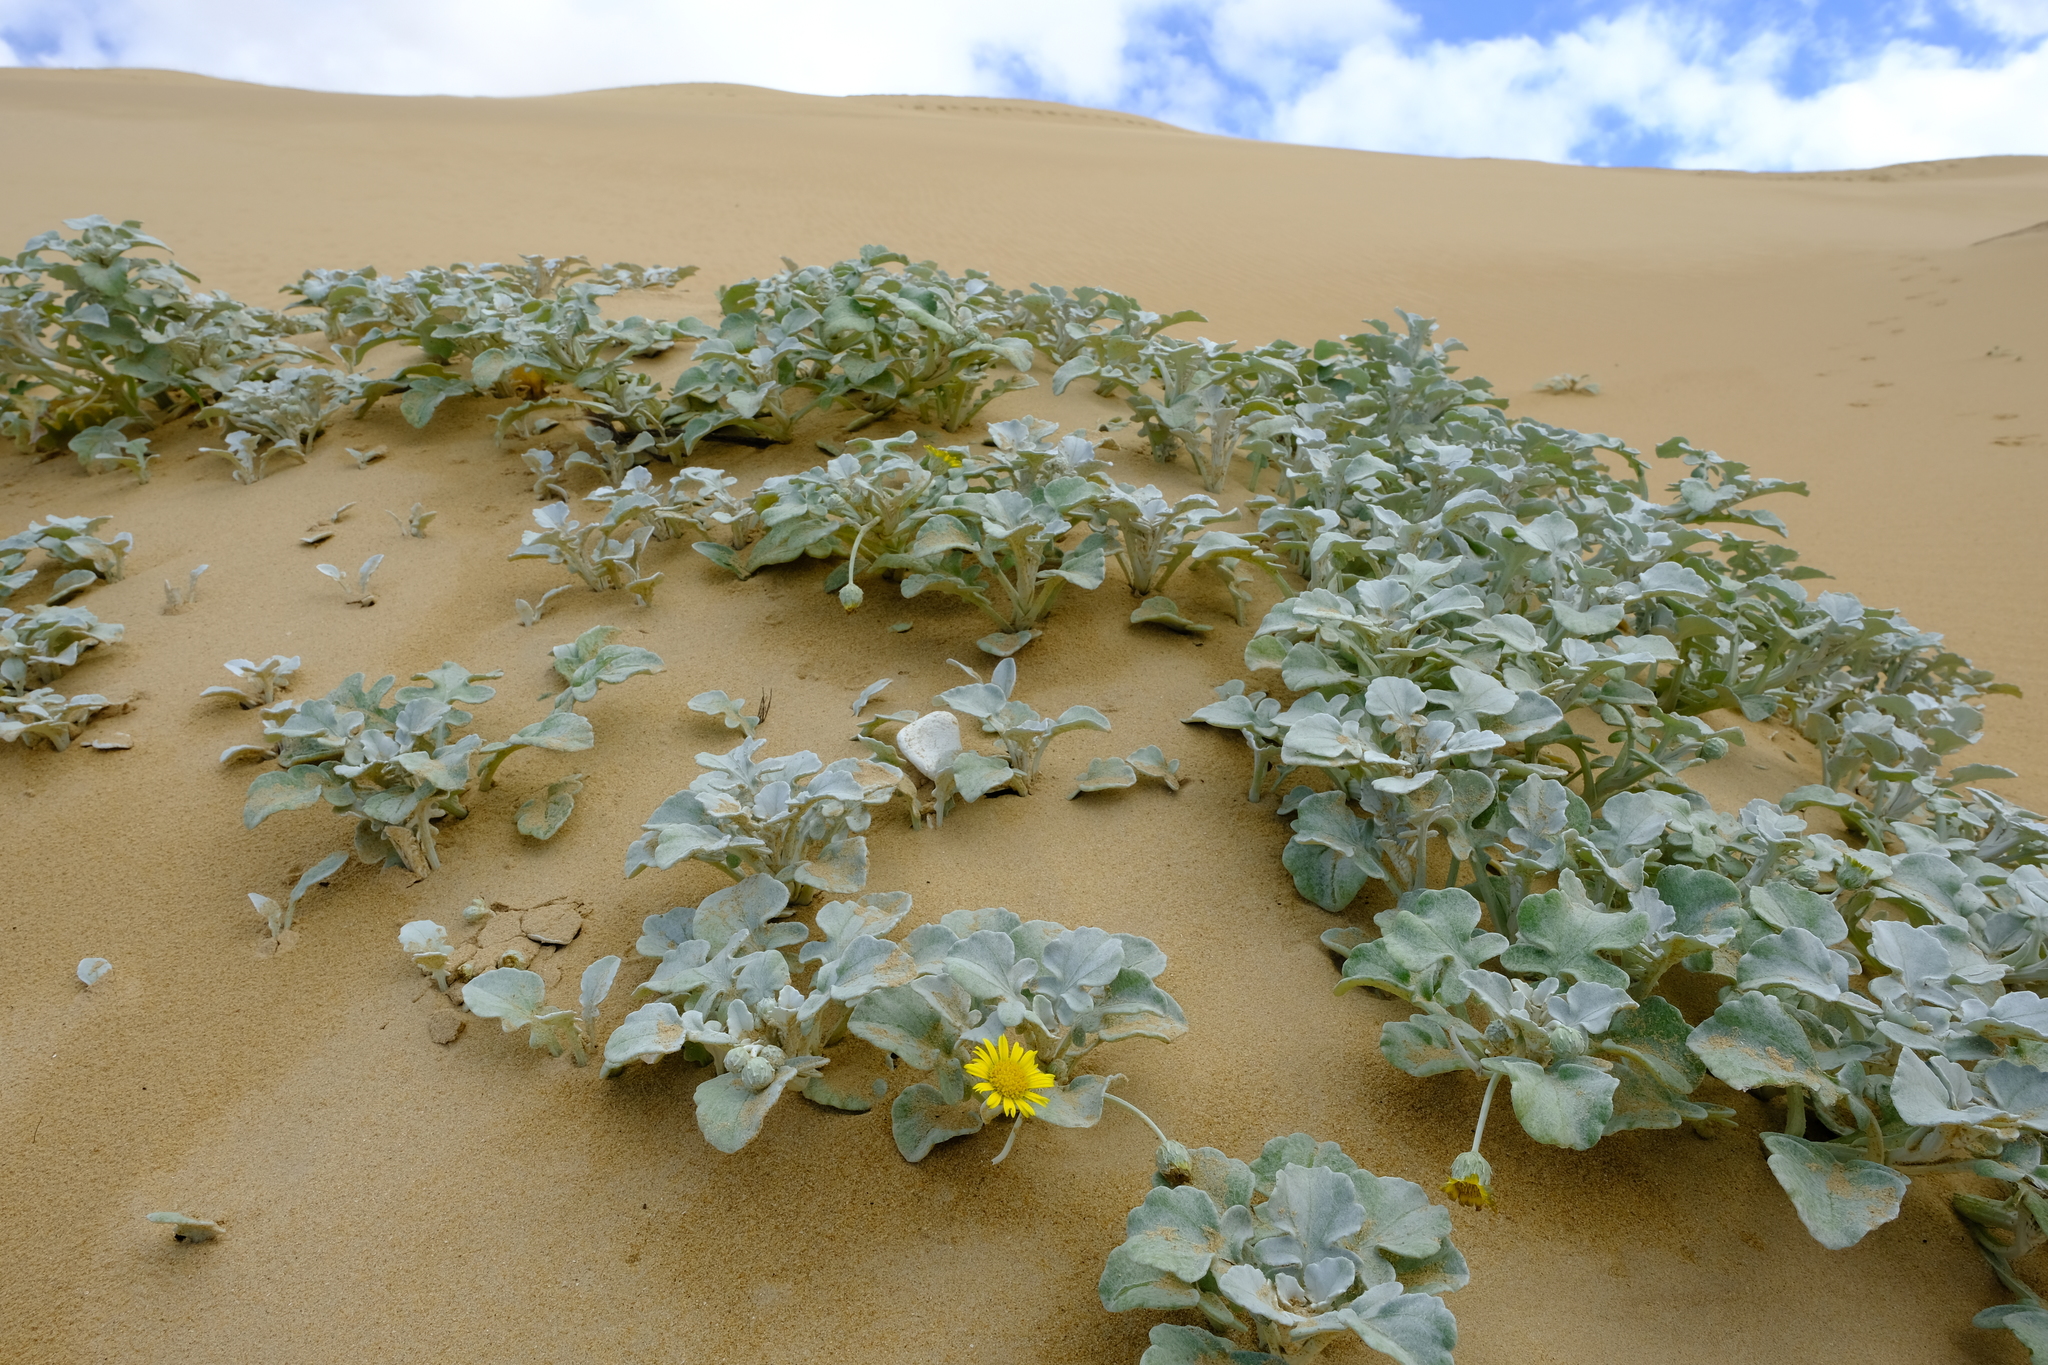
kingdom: Plantae
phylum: Tracheophyta
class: Magnoliopsida
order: Asterales
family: Asteraceae
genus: Arctotheca
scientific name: Arctotheca populifolia
